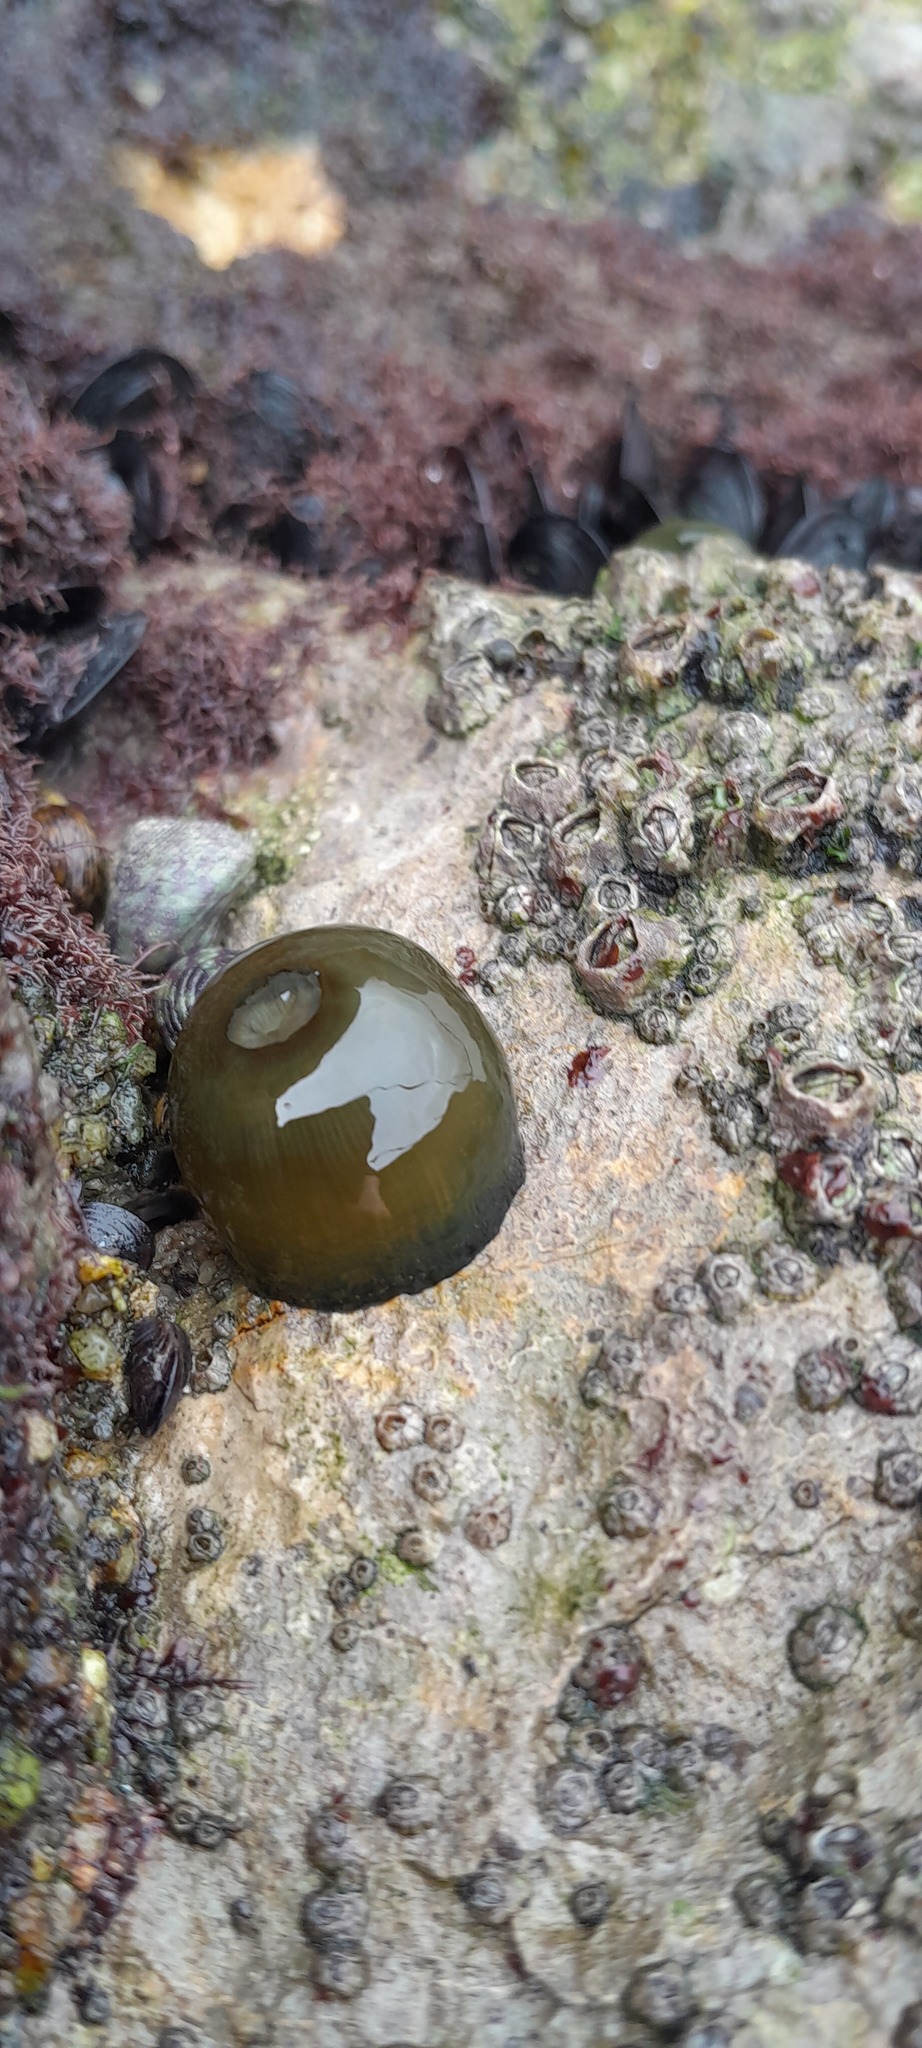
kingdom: Animalia
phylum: Cnidaria
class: Anthozoa
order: Actiniaria
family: Actiniidae
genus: Actinia
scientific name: Actinia equina
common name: Beadlet anemone
